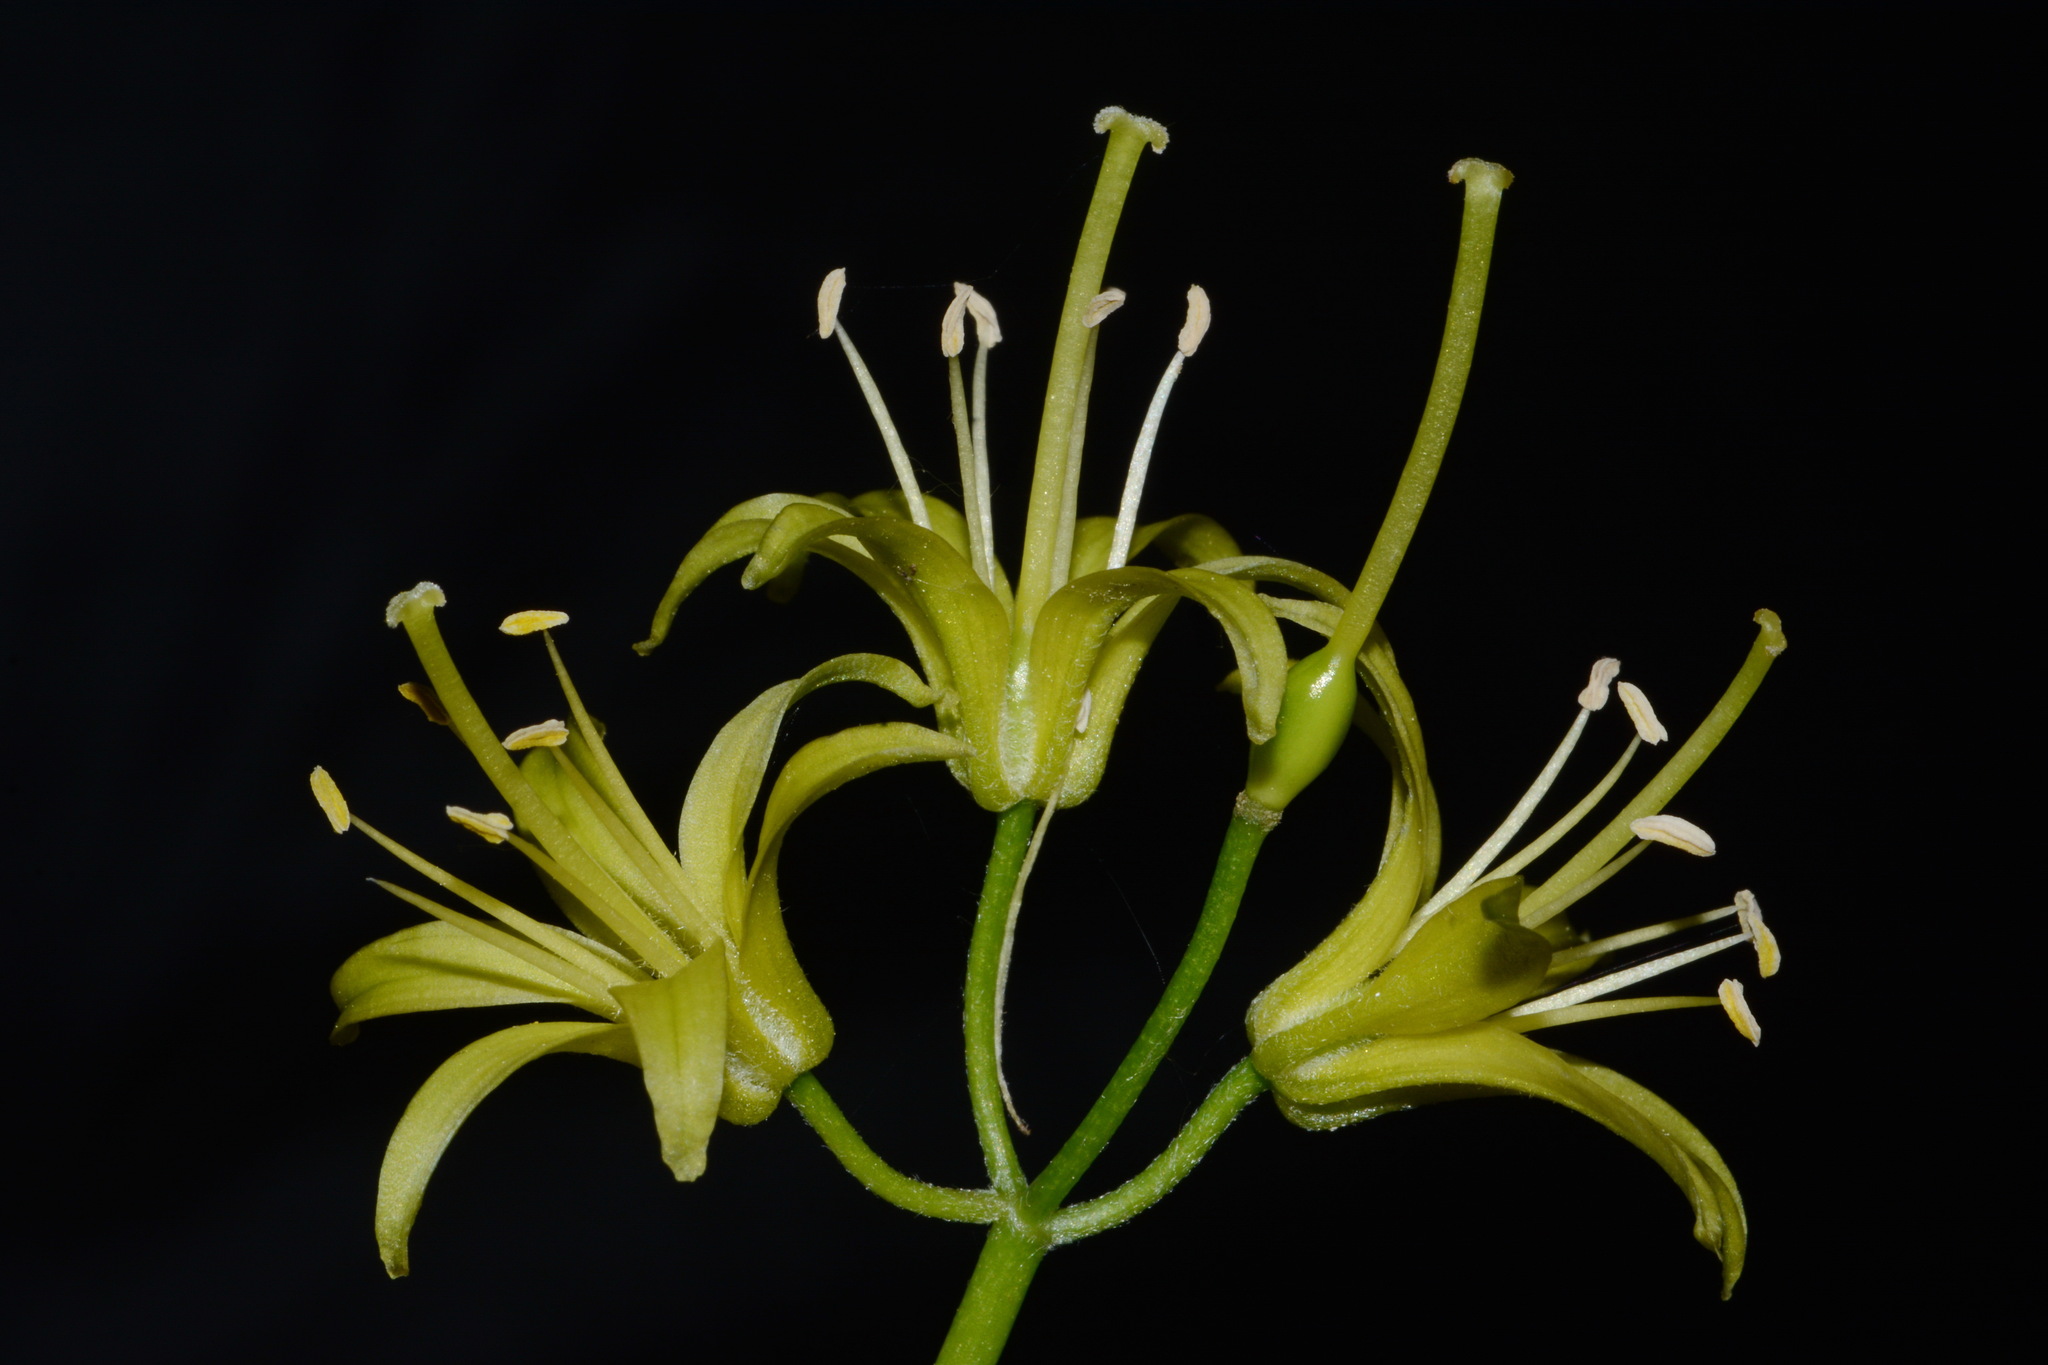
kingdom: Plantae
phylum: Tracheophyta
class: Liliopsida
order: Liliales
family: Liliaceae
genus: Clintonia
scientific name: Clintonia borealis
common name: Yellow clintonia
